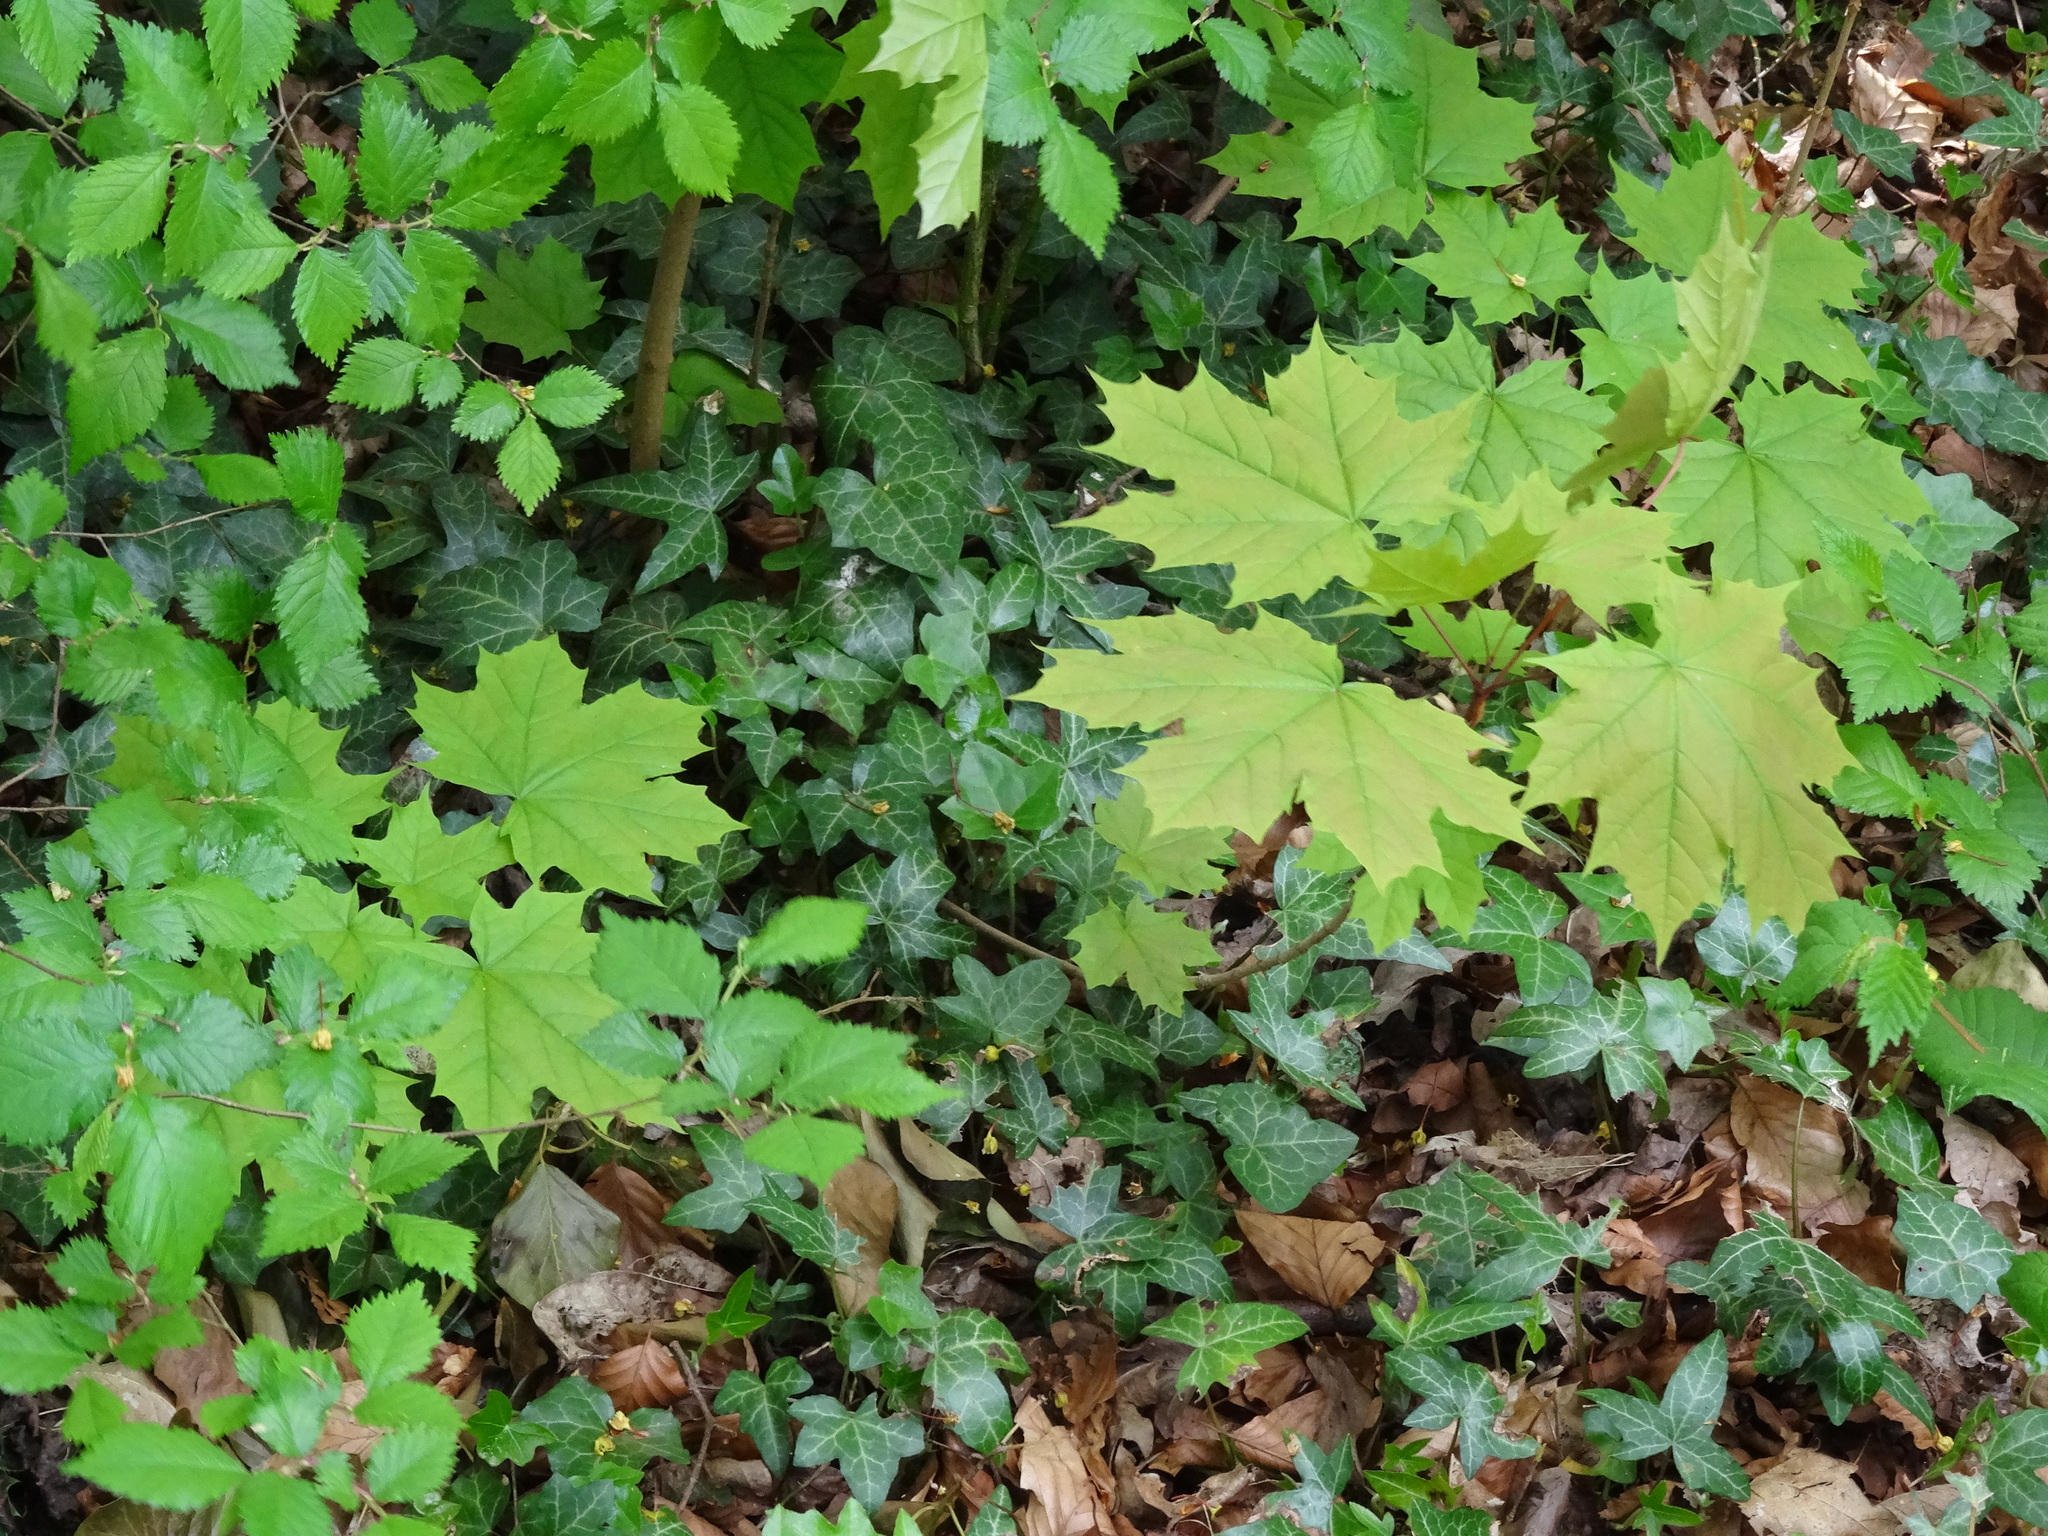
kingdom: Plantae
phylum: Tracheophyta
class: Magnoliopsida
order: Sapindales
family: Sapindaceae
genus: Acer
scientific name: Acer platanoides
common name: Norway maple
